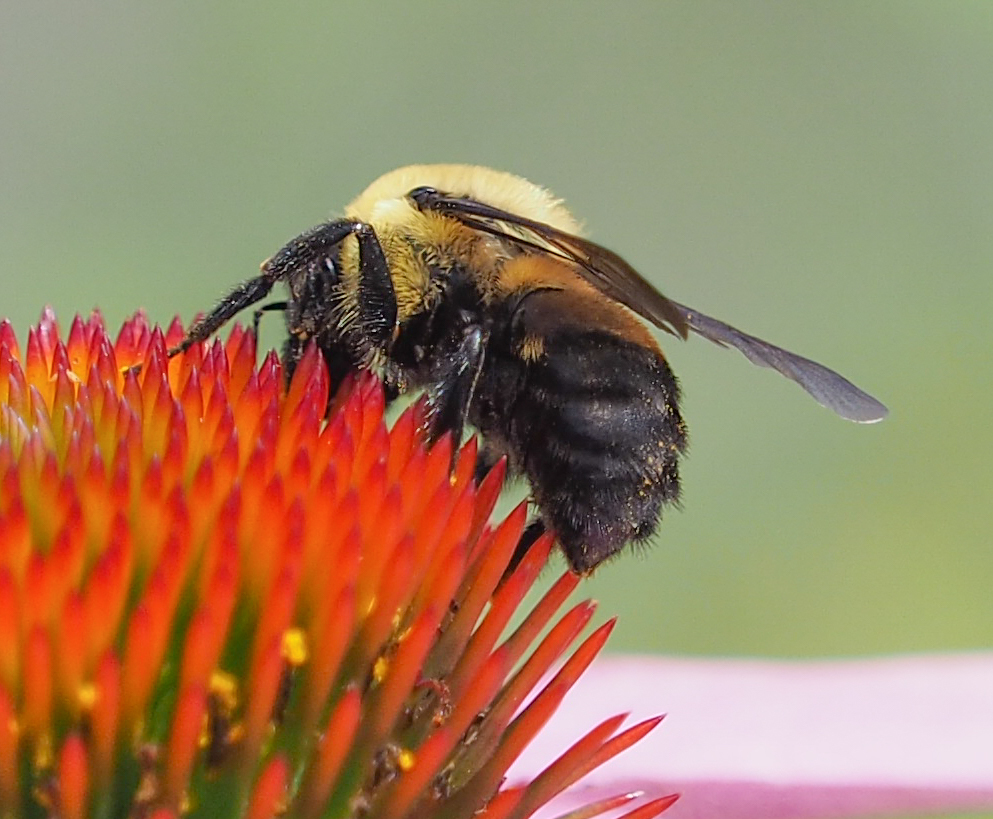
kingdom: Animalia
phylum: Arthropoda
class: Insecta
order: Hymenoptera
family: Apidae
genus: Bombus
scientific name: Bombus griseocollis
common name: Brown-belted bumble bee
